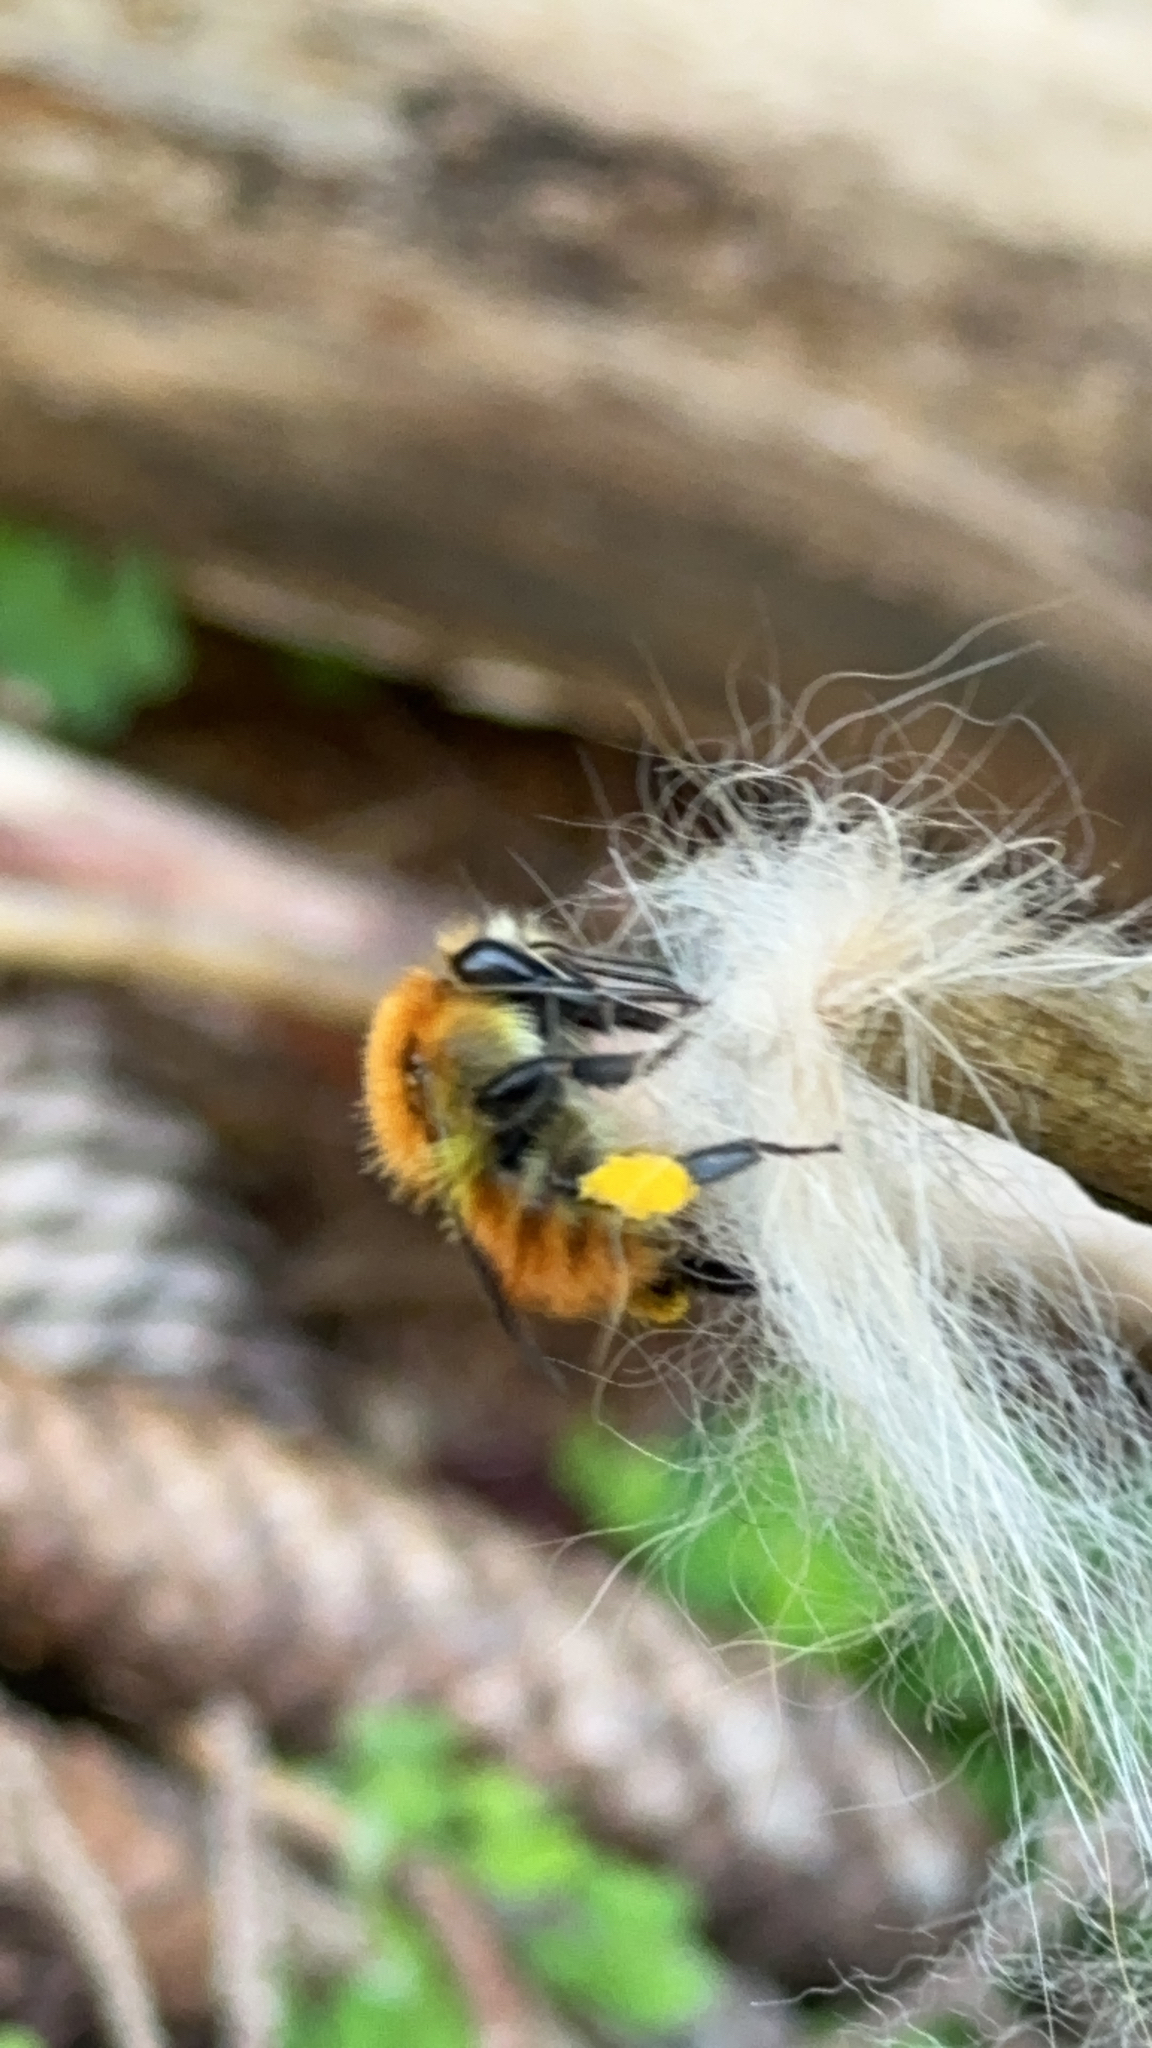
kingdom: Animalia
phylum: Arthropoda
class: Insecta
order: Hymenoptera
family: Apidae
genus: Bombus
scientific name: Bombus pascuorum
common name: Common carder bee
